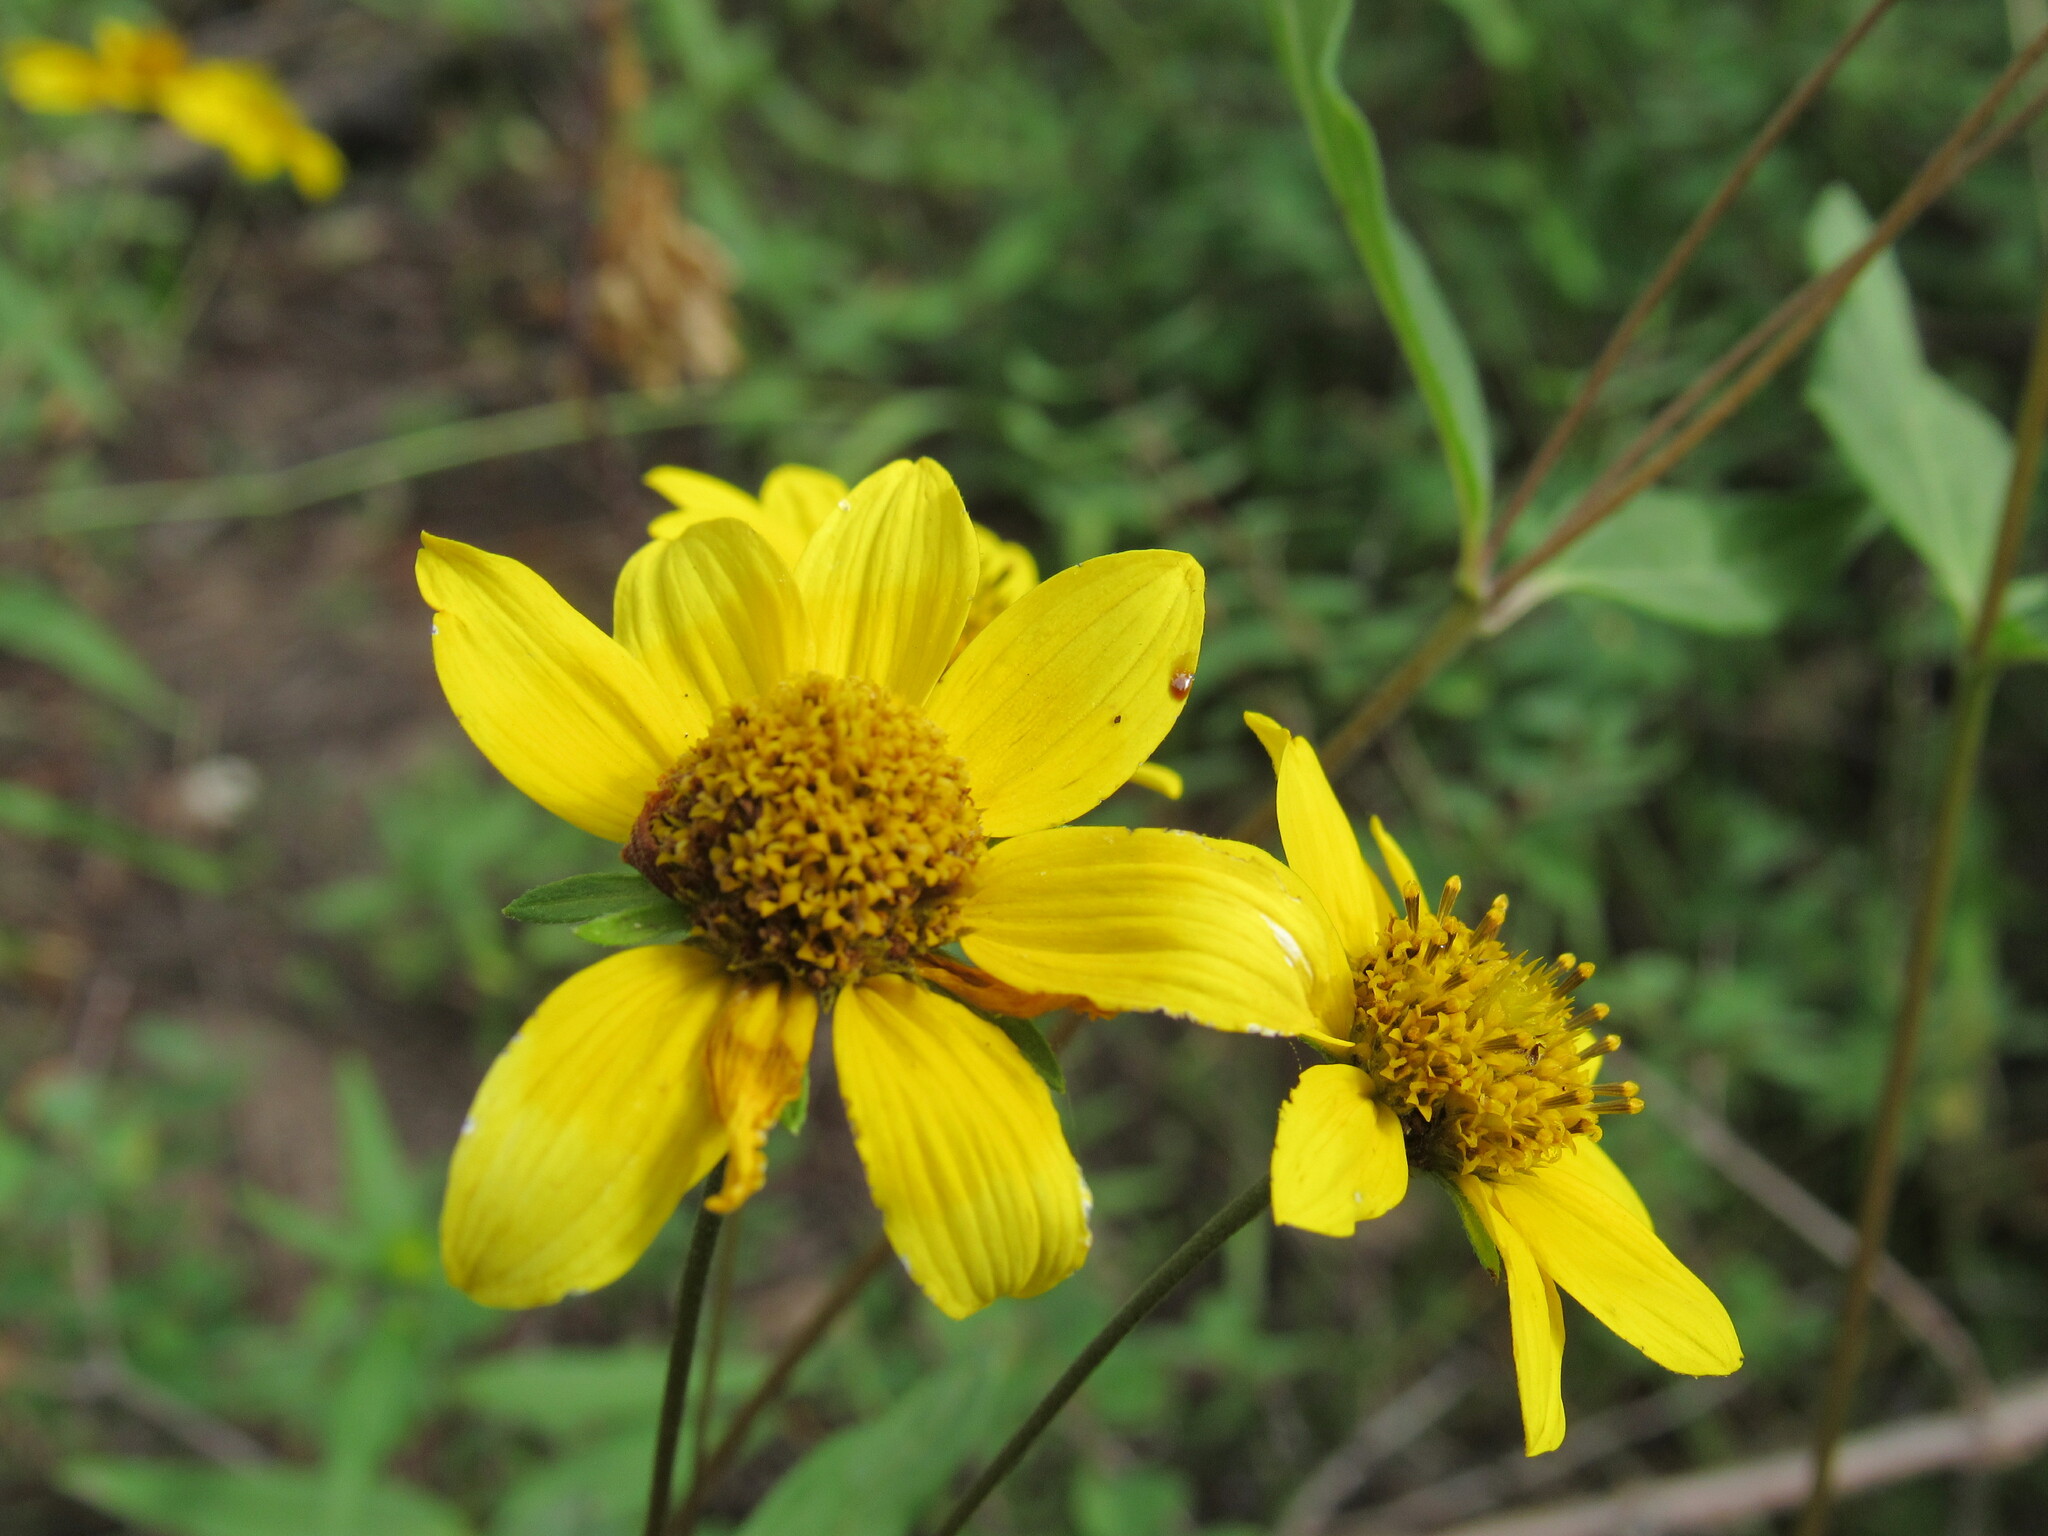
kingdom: Plantae
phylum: Tracheophyta
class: Magnoliopsida
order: Asterales
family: Asteraceae
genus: Heliomeris
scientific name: Heliomeris multiflora
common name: Showy goldeneye
